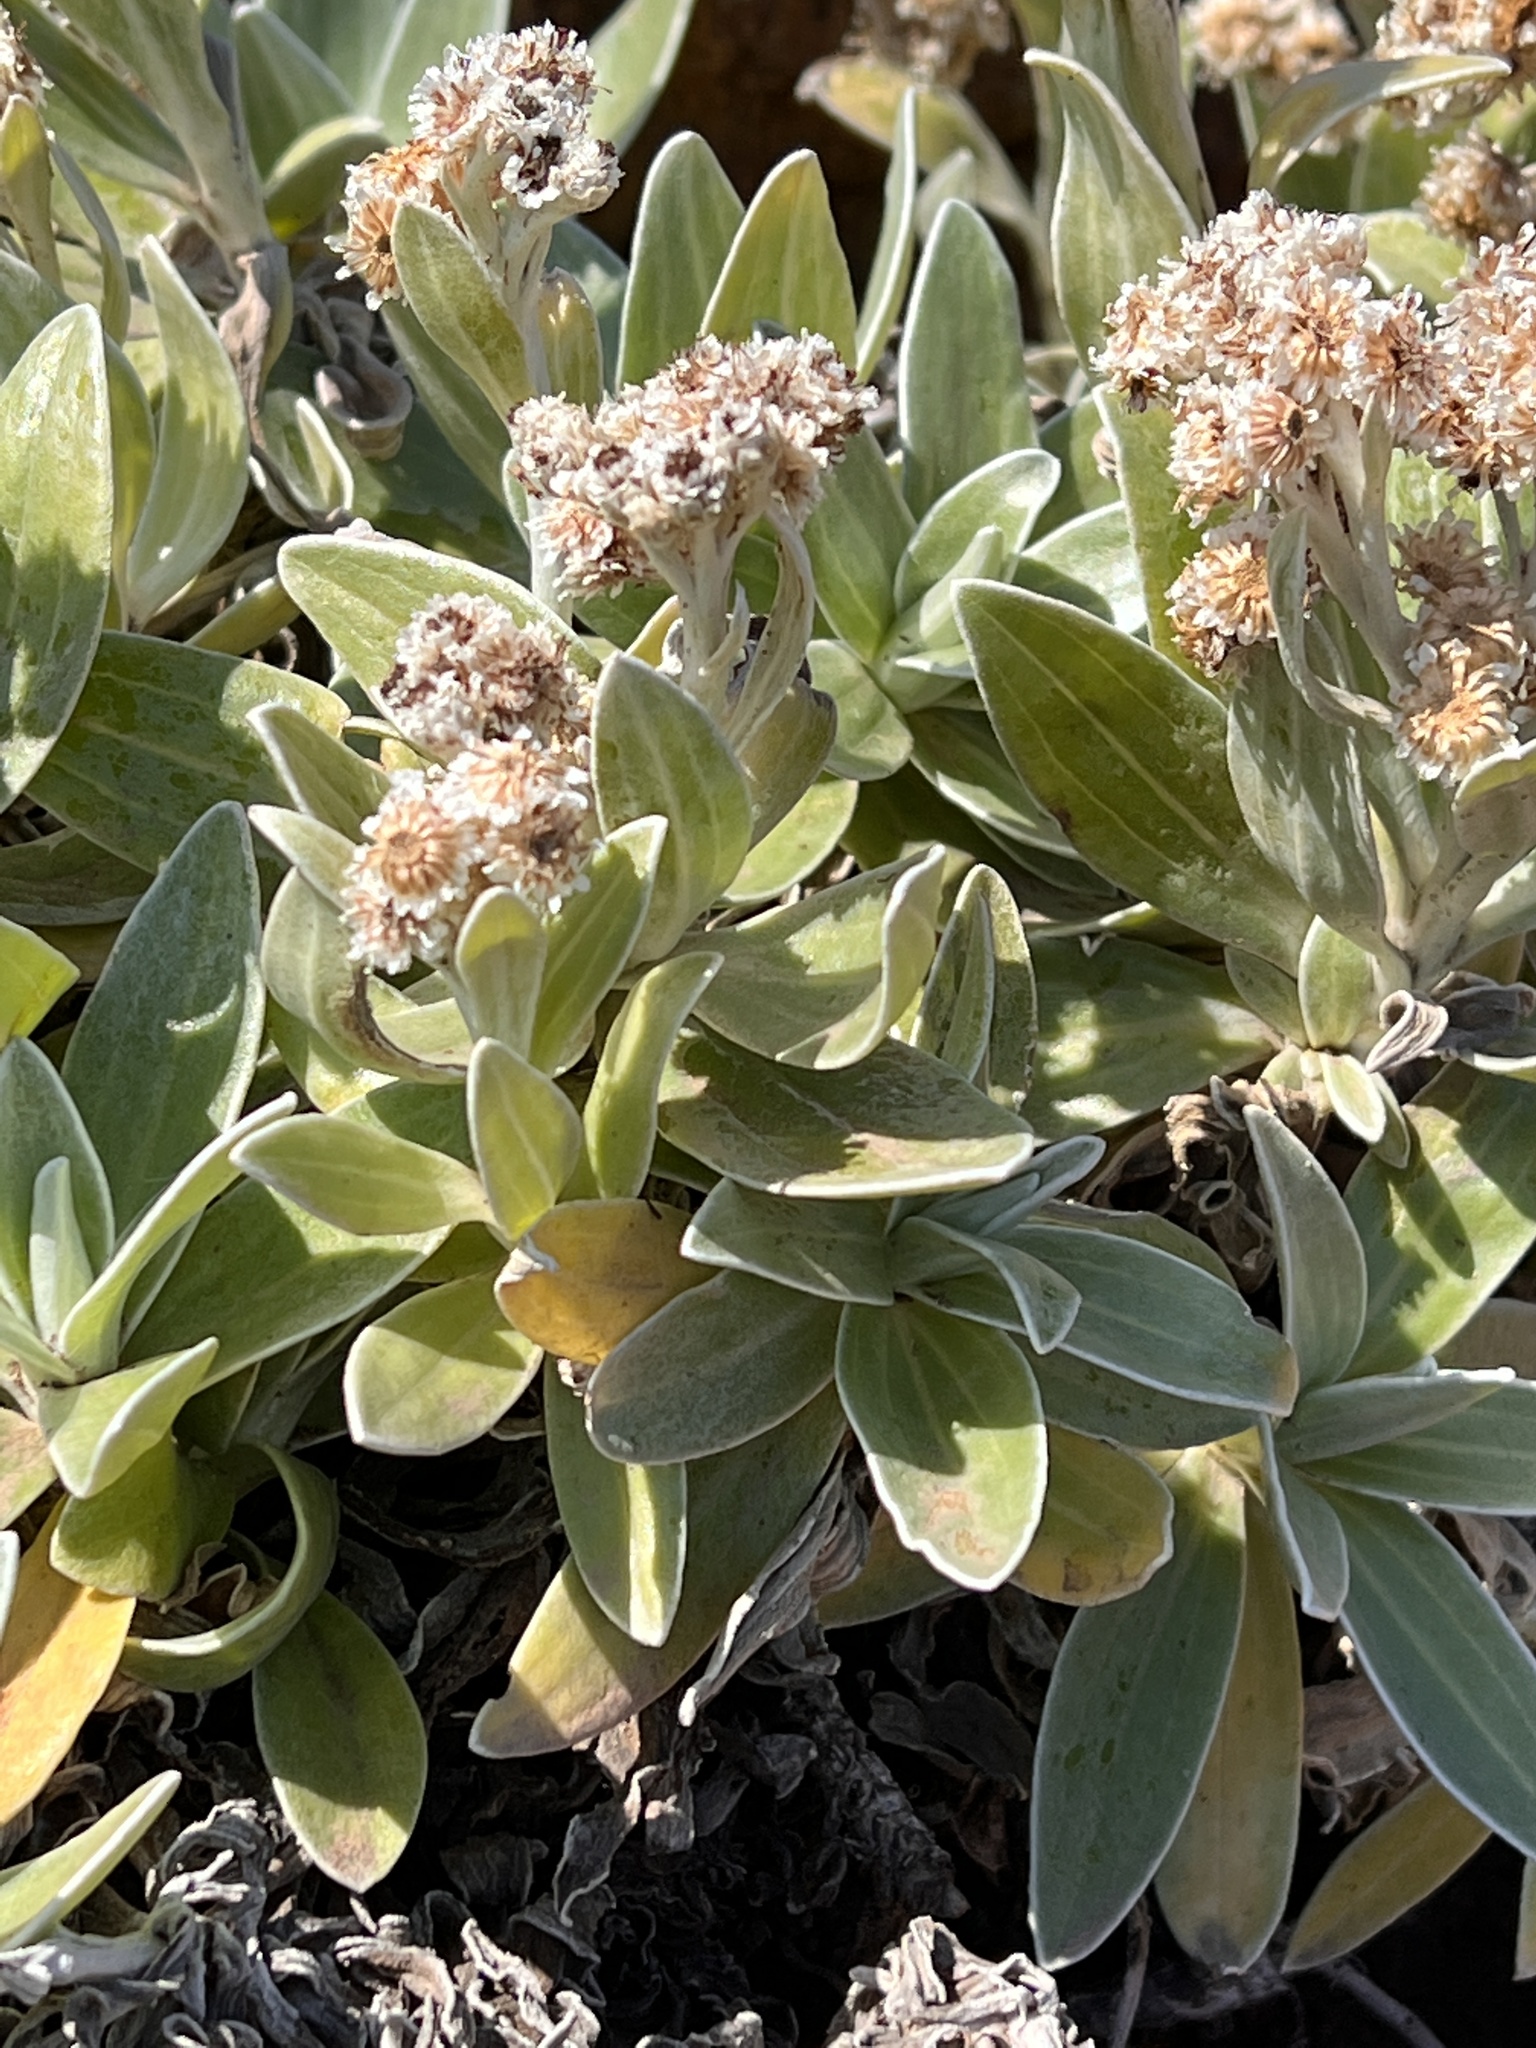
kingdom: Plantae
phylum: Tracheophyta
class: Magnoliopsida
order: Asterales
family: Asteraceae
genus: Helichrysum
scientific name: Helichrysum devium
